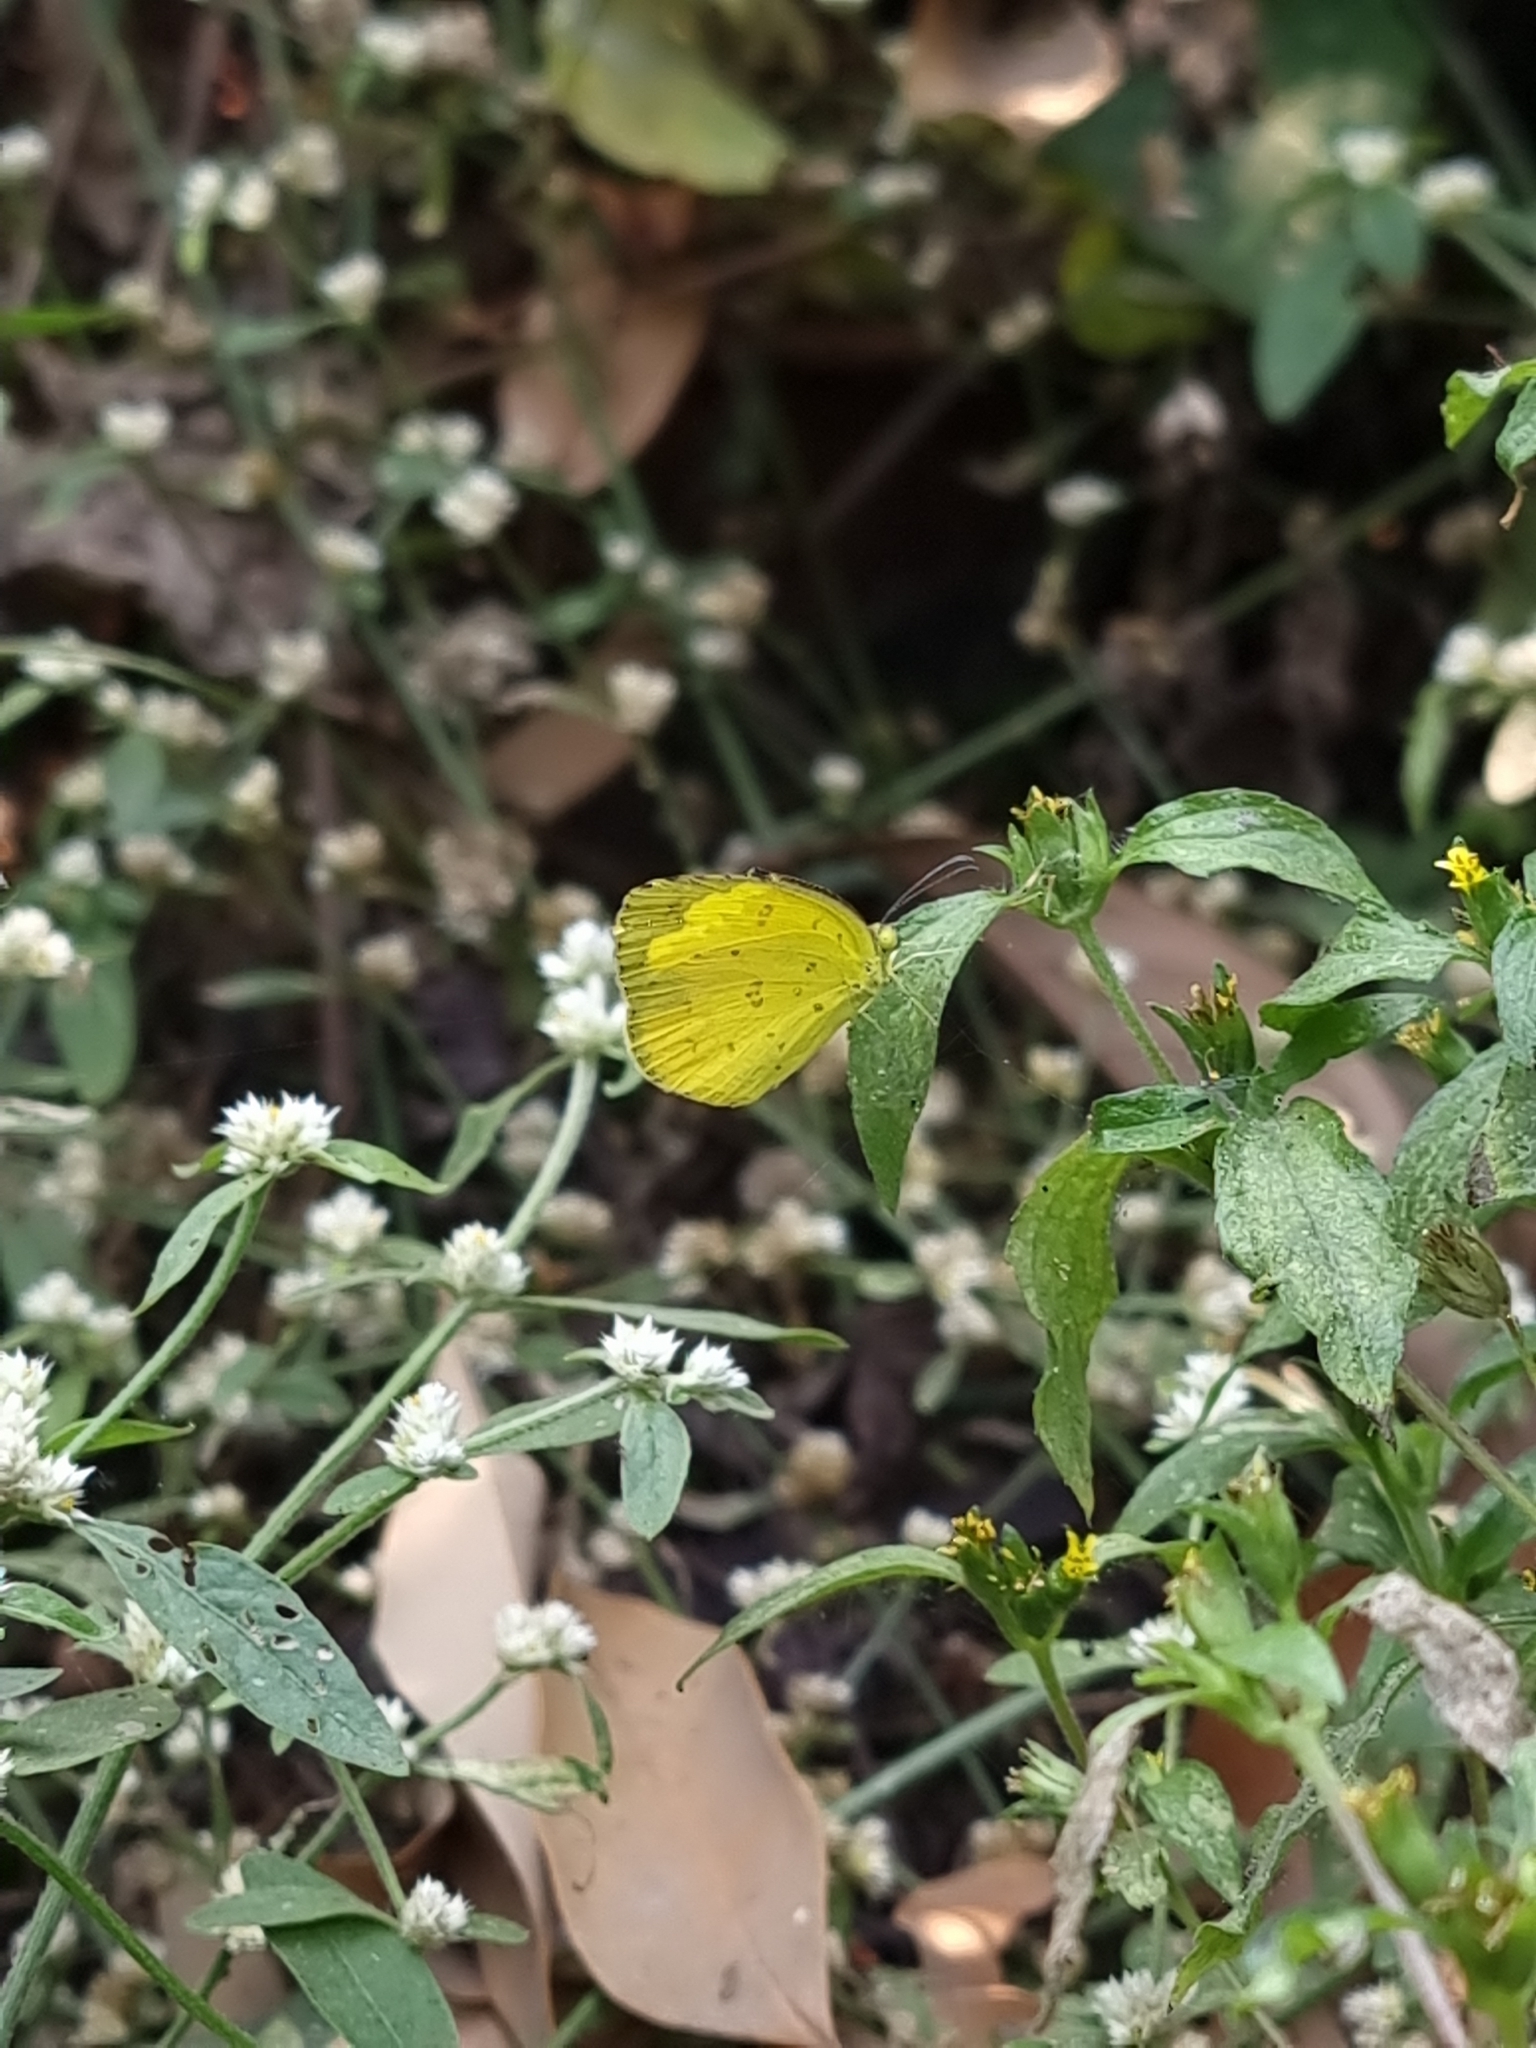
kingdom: Animalia
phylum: Arthropoda
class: Insecta
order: Lepidoptera
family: Pieridae
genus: Eurema
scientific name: Eurema hecabe
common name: Pale grass yellow
